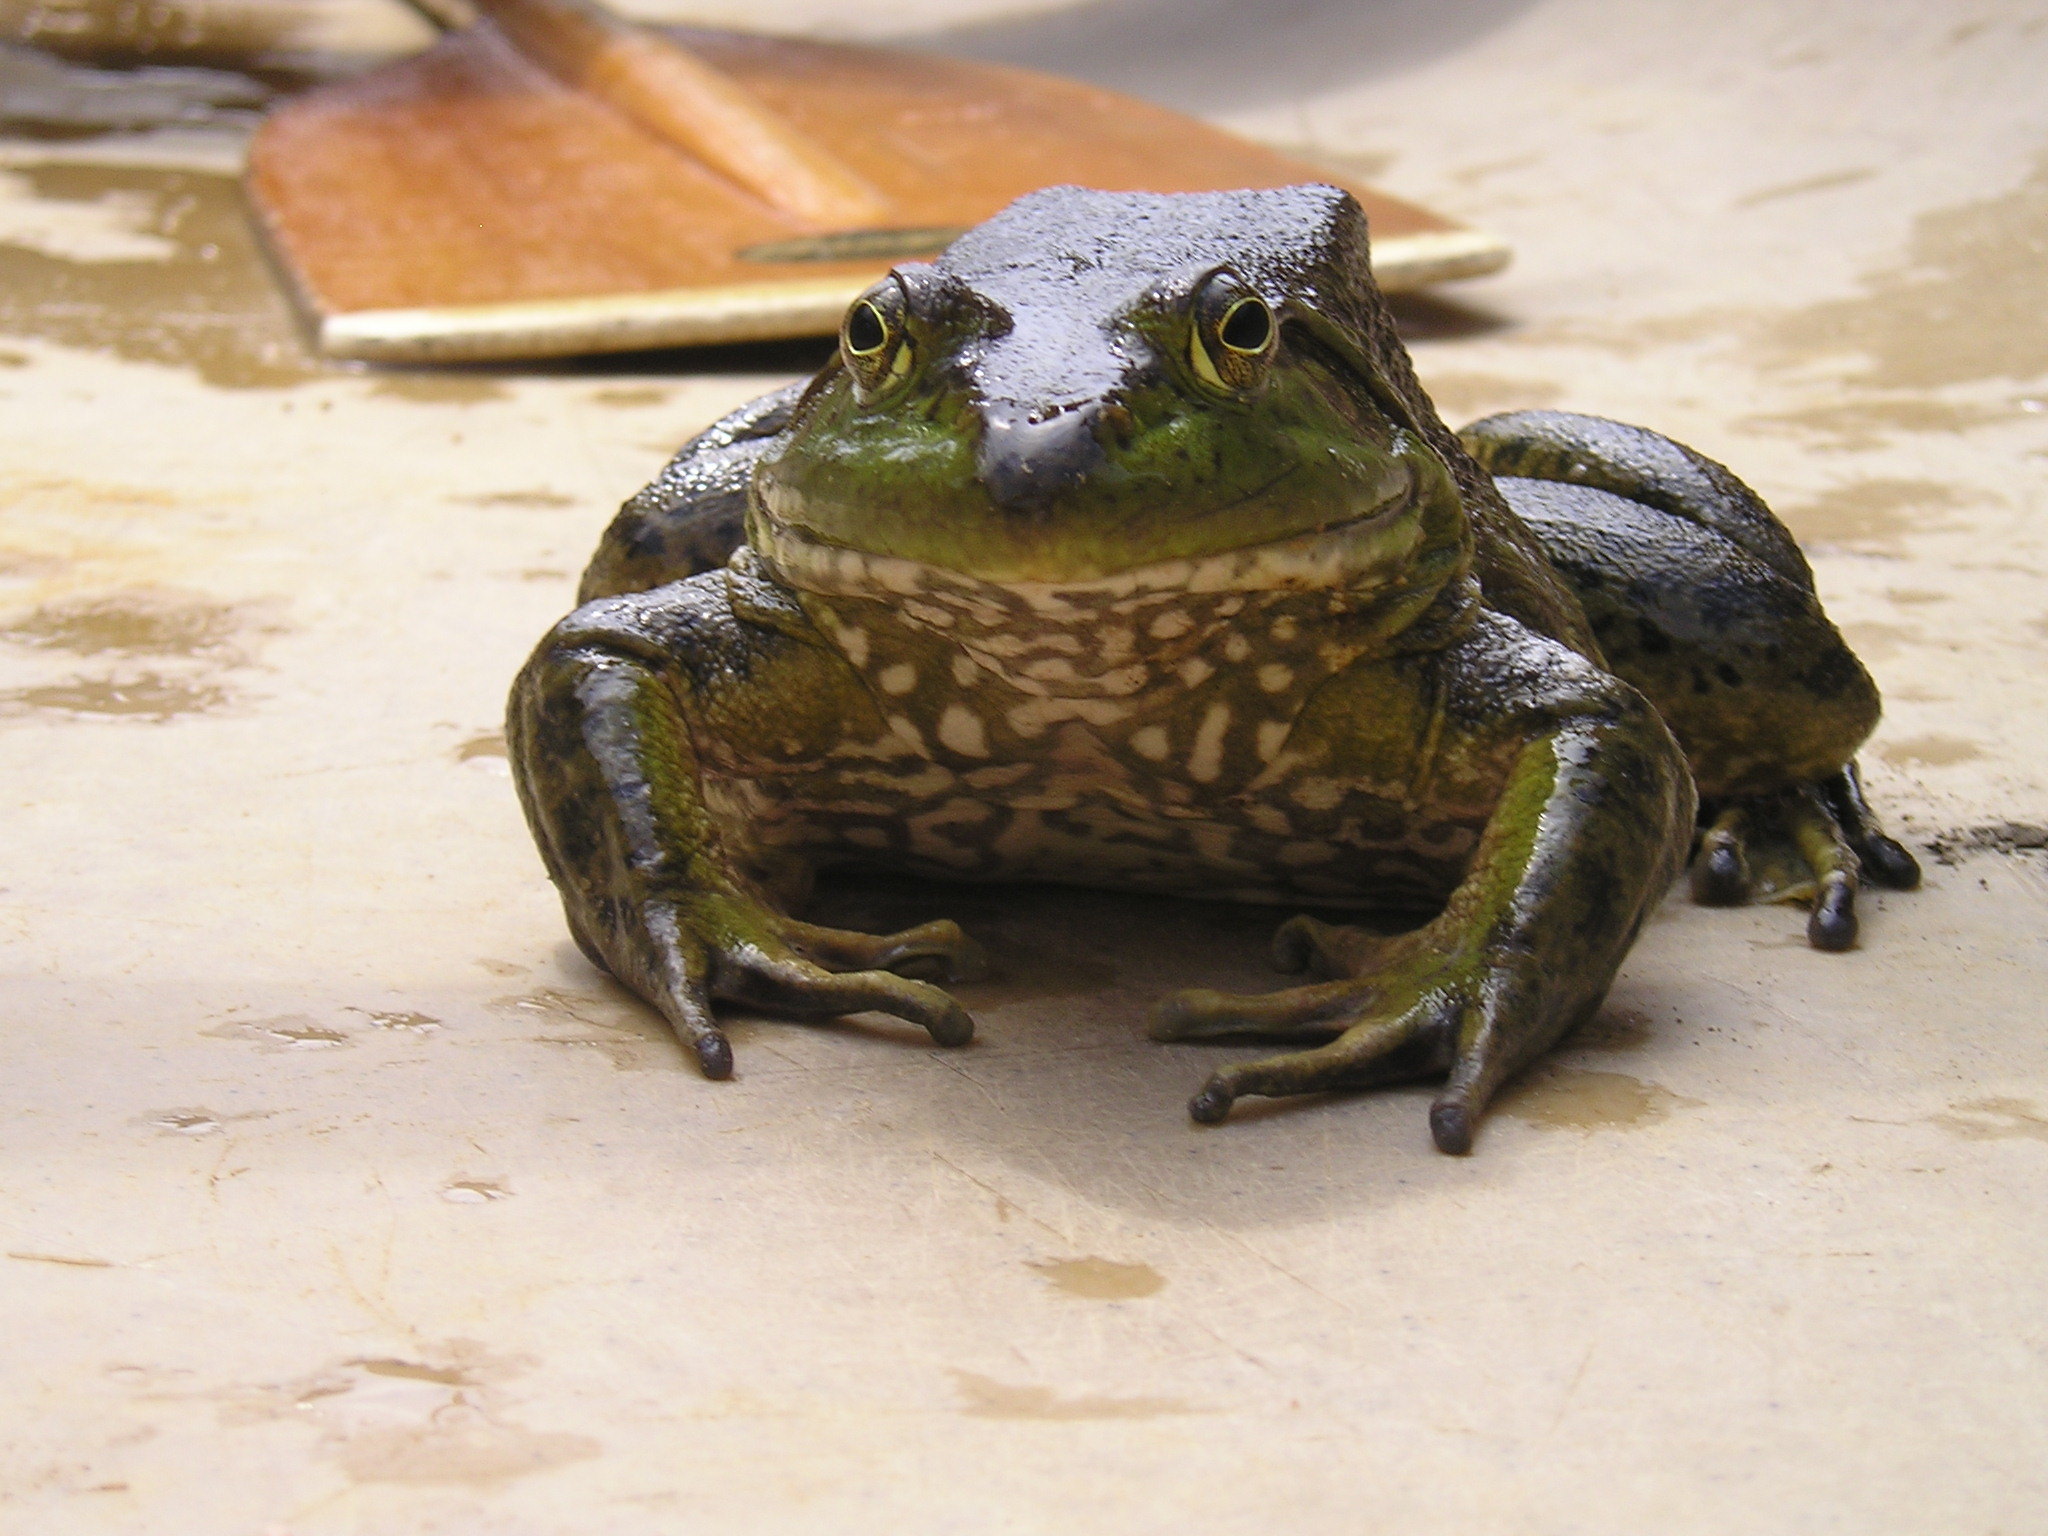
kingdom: Animalia
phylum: Chordata
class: Amphibia
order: Anura
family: Ranidae
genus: Lithobates
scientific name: Lithobates catesbeianus
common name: American bullfrog
